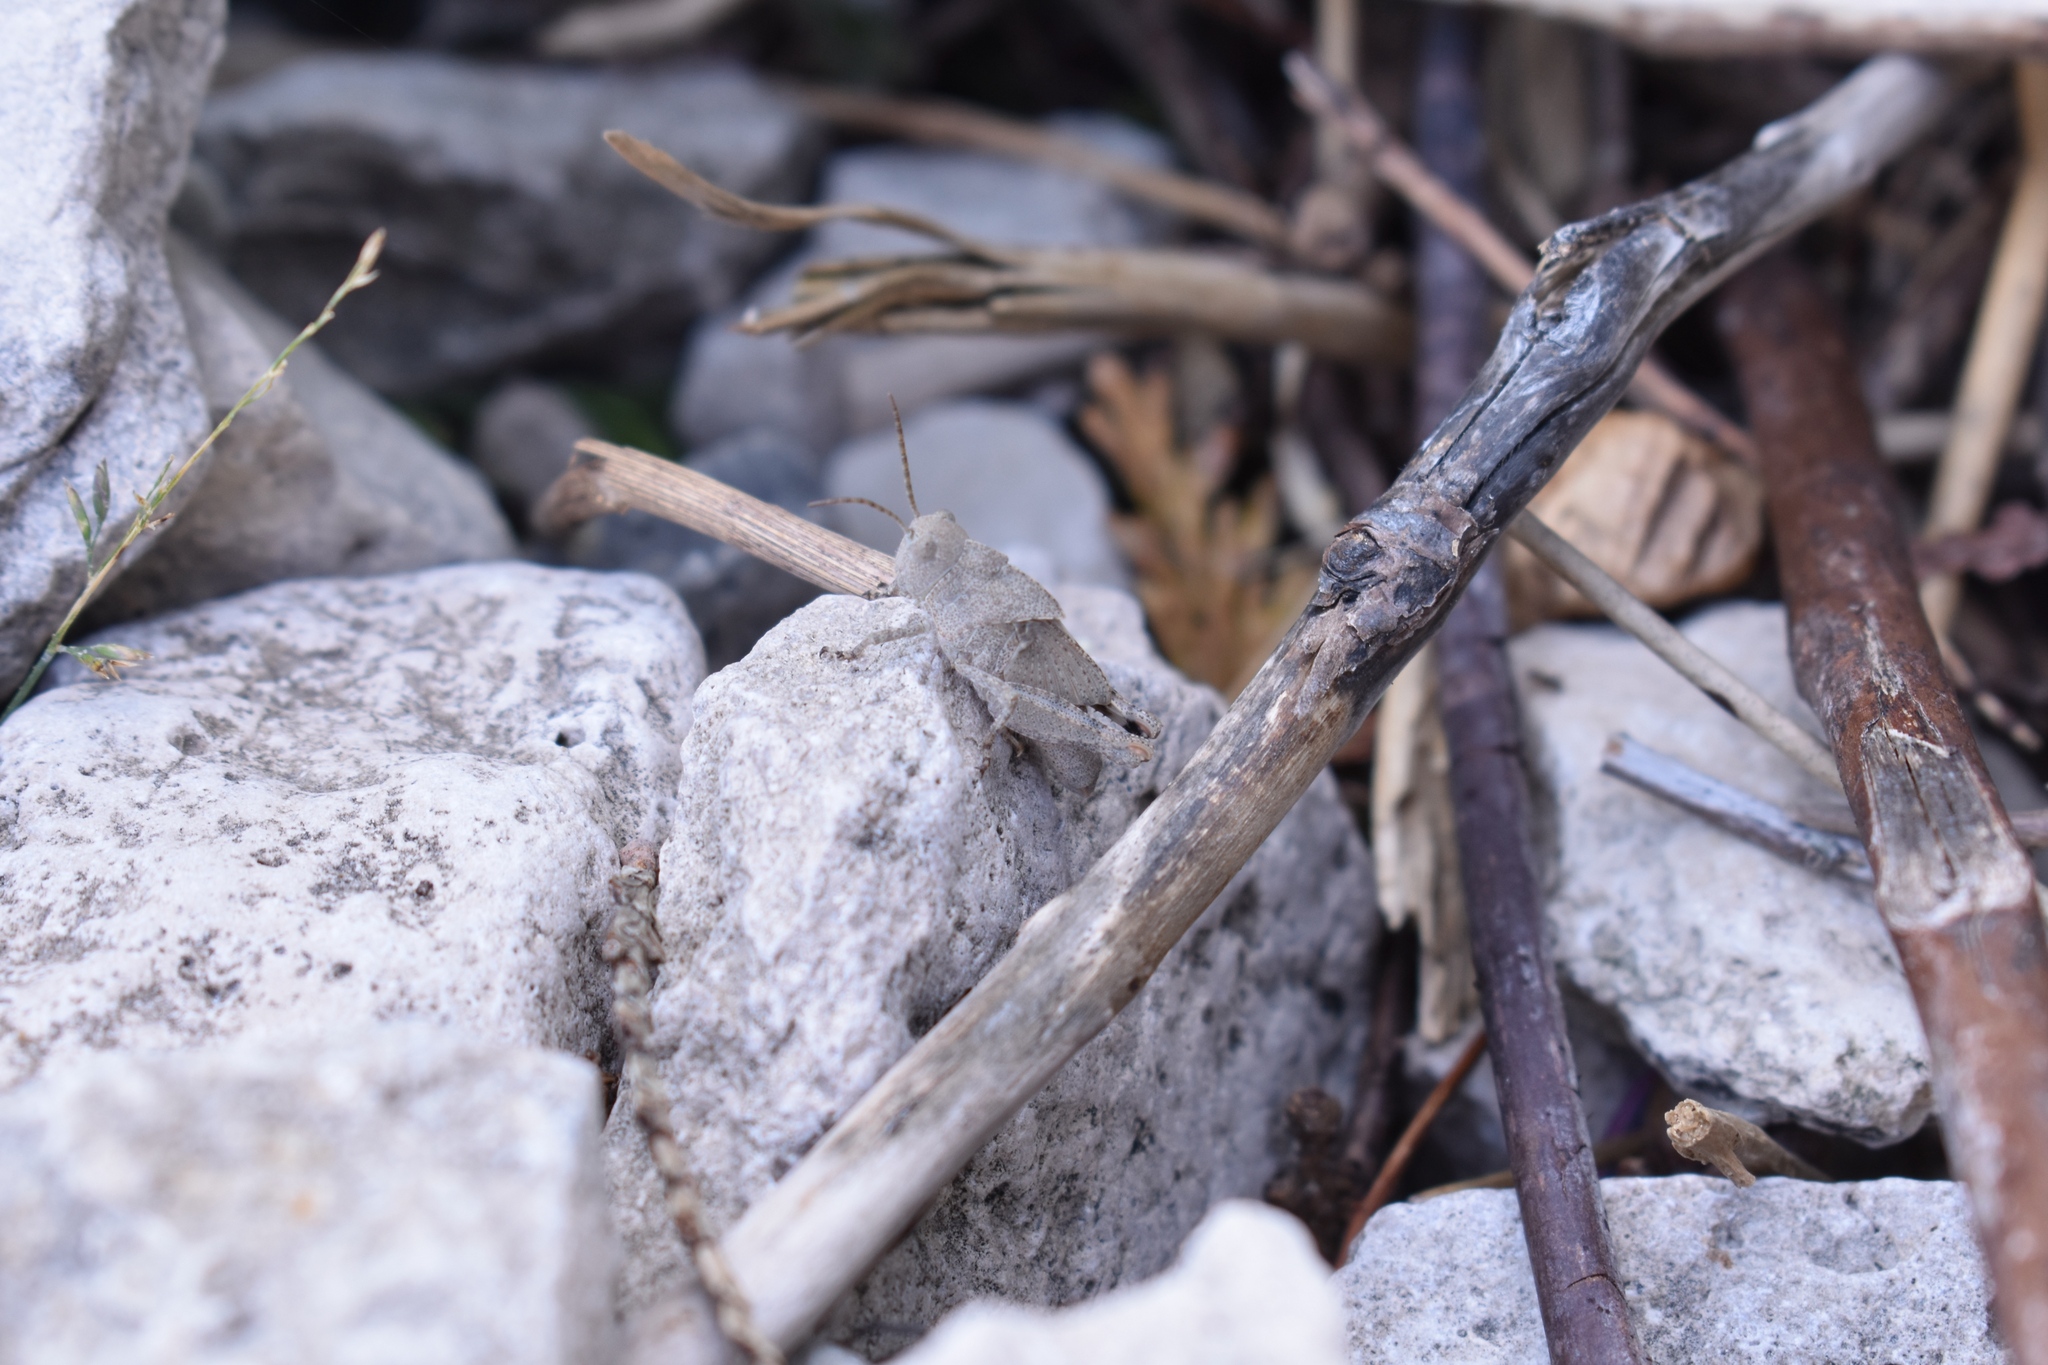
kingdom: Animalia
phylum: Arthropoda
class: Insecta
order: Orthoptera
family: Acrididae
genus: Dissosteira
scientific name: Dissosteira carolina
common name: Carolina grasshopper
